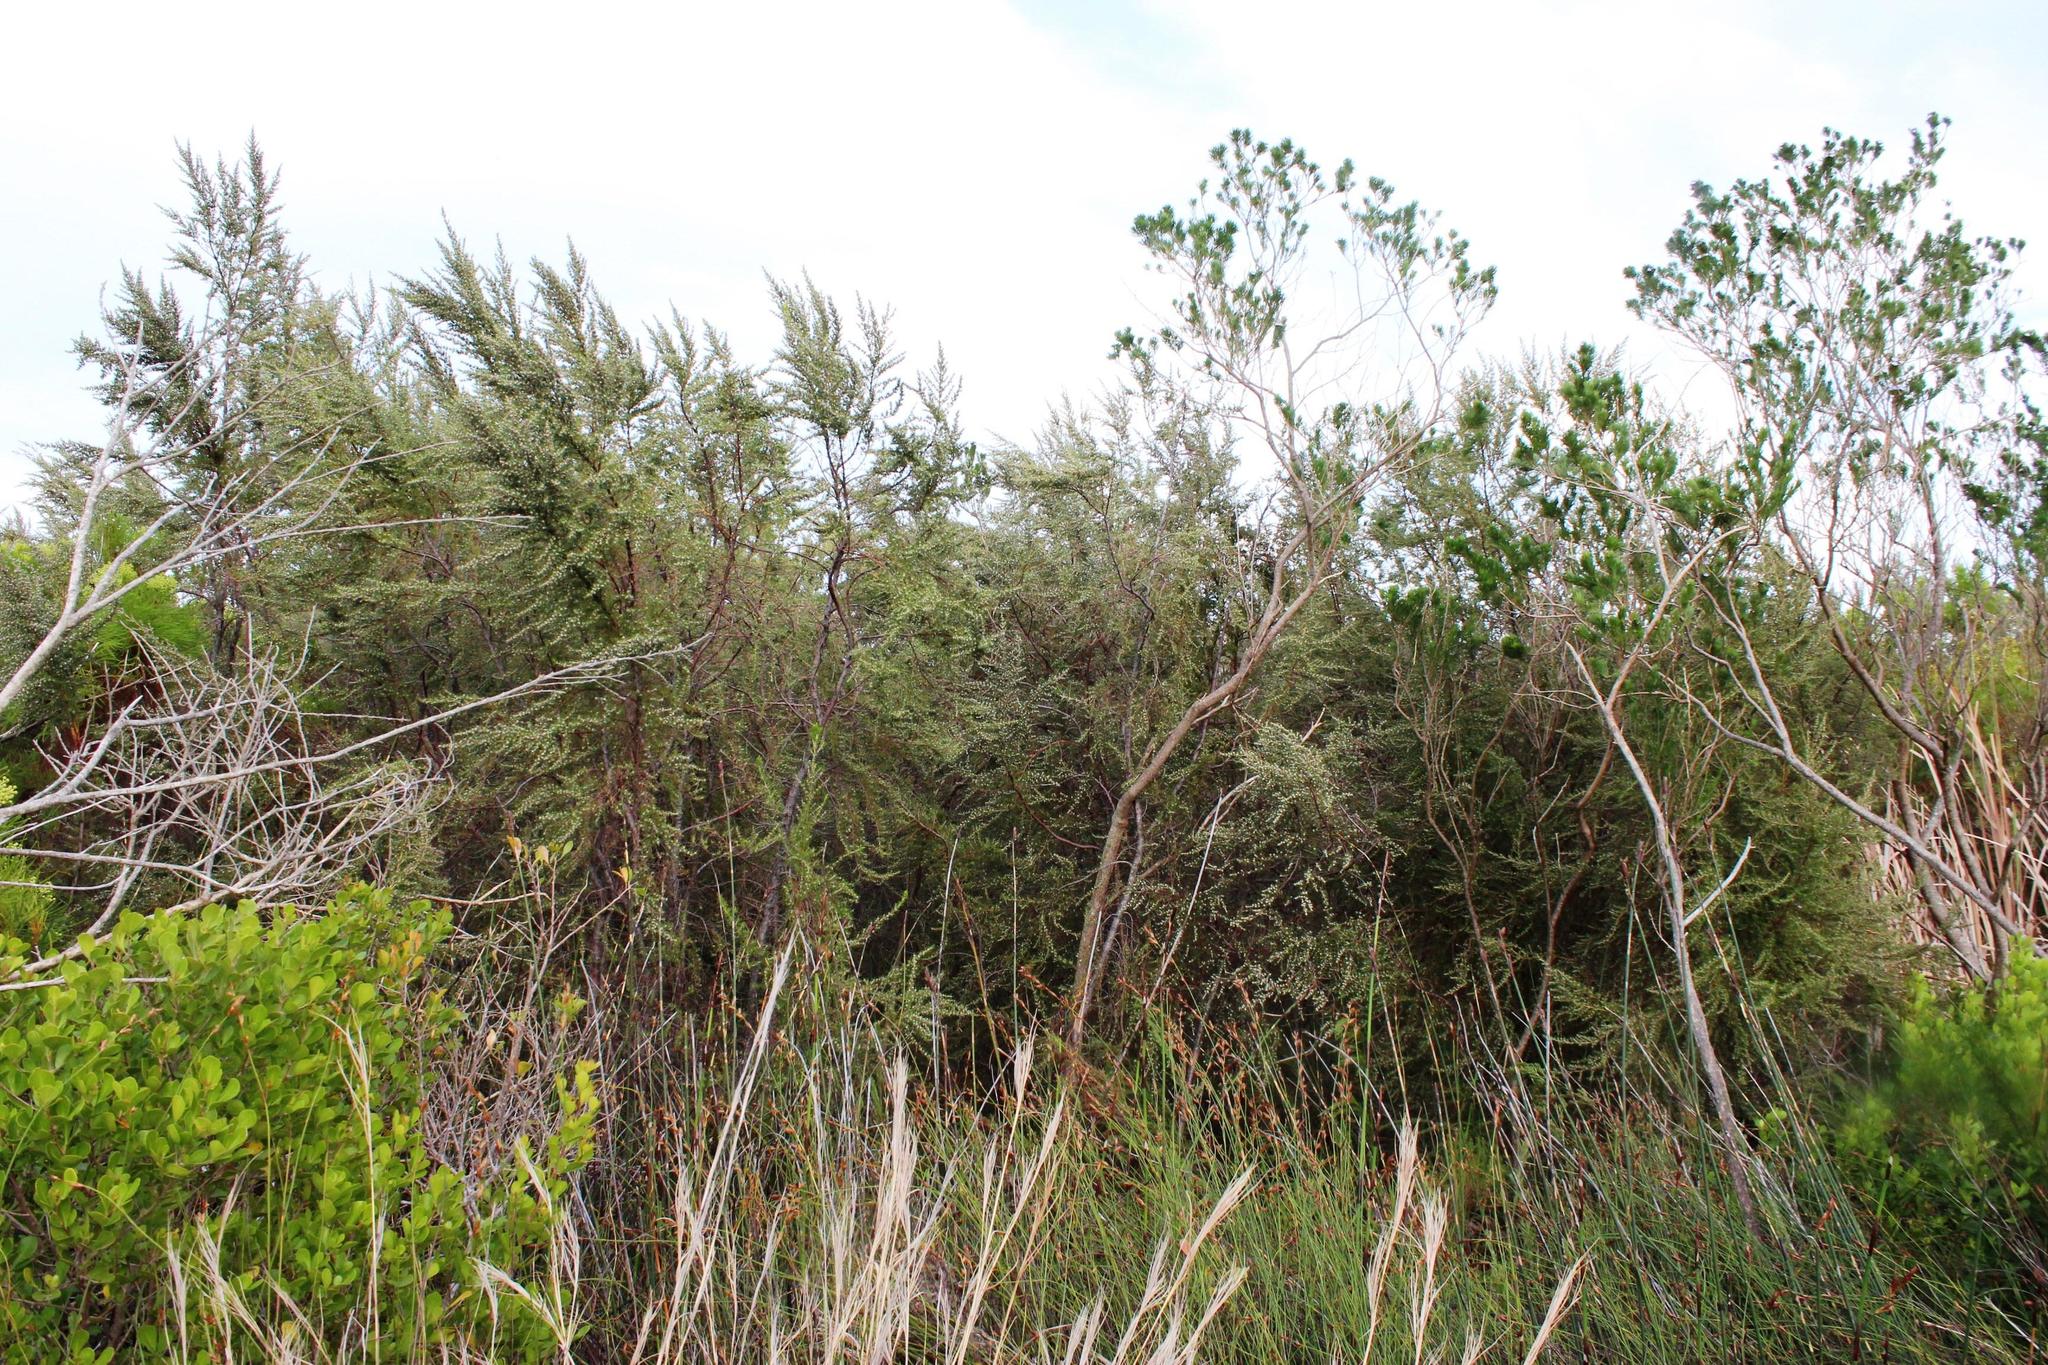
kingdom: Plantae
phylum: Tracheophyta
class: Magnoliopsida
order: Cornales
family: Grubbiaceae
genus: Grubbia
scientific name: Grubbia rosmarinifolia
